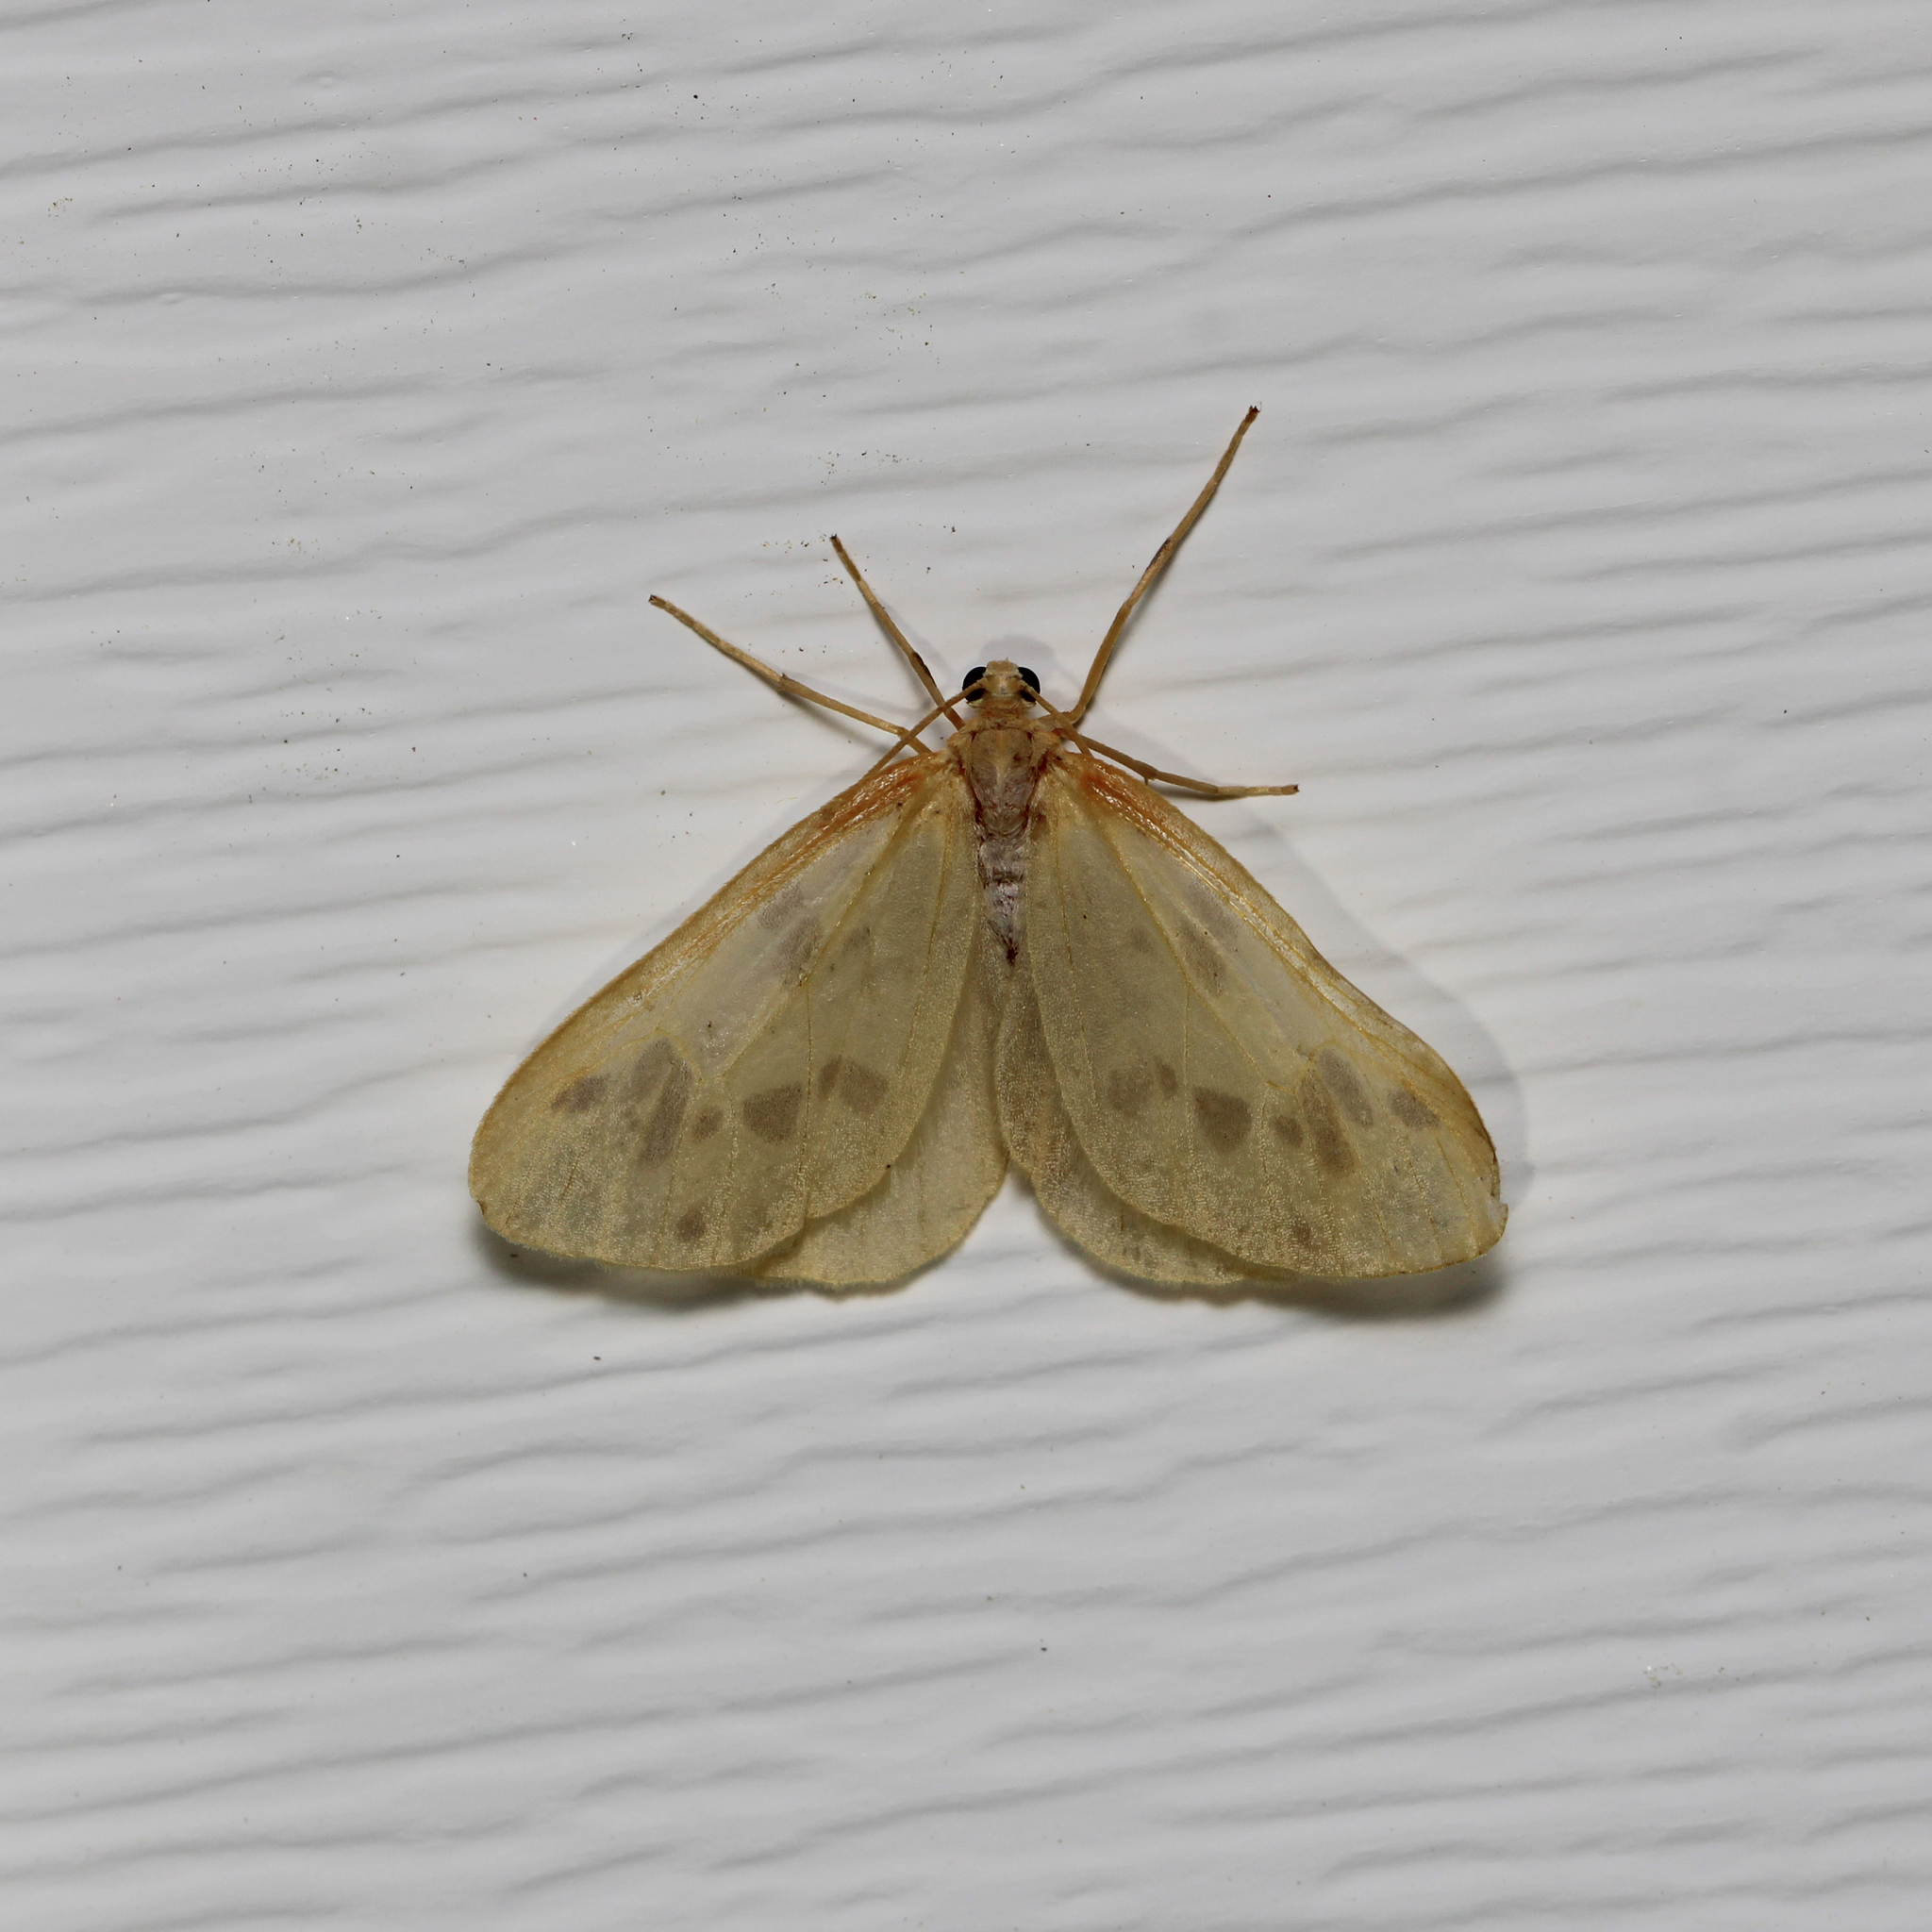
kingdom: Animalia
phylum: Arthropoda
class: Insecta
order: Lepidoptera
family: Geometridae
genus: Eubaphe
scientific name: Eubaphe mendica
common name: Beggar
